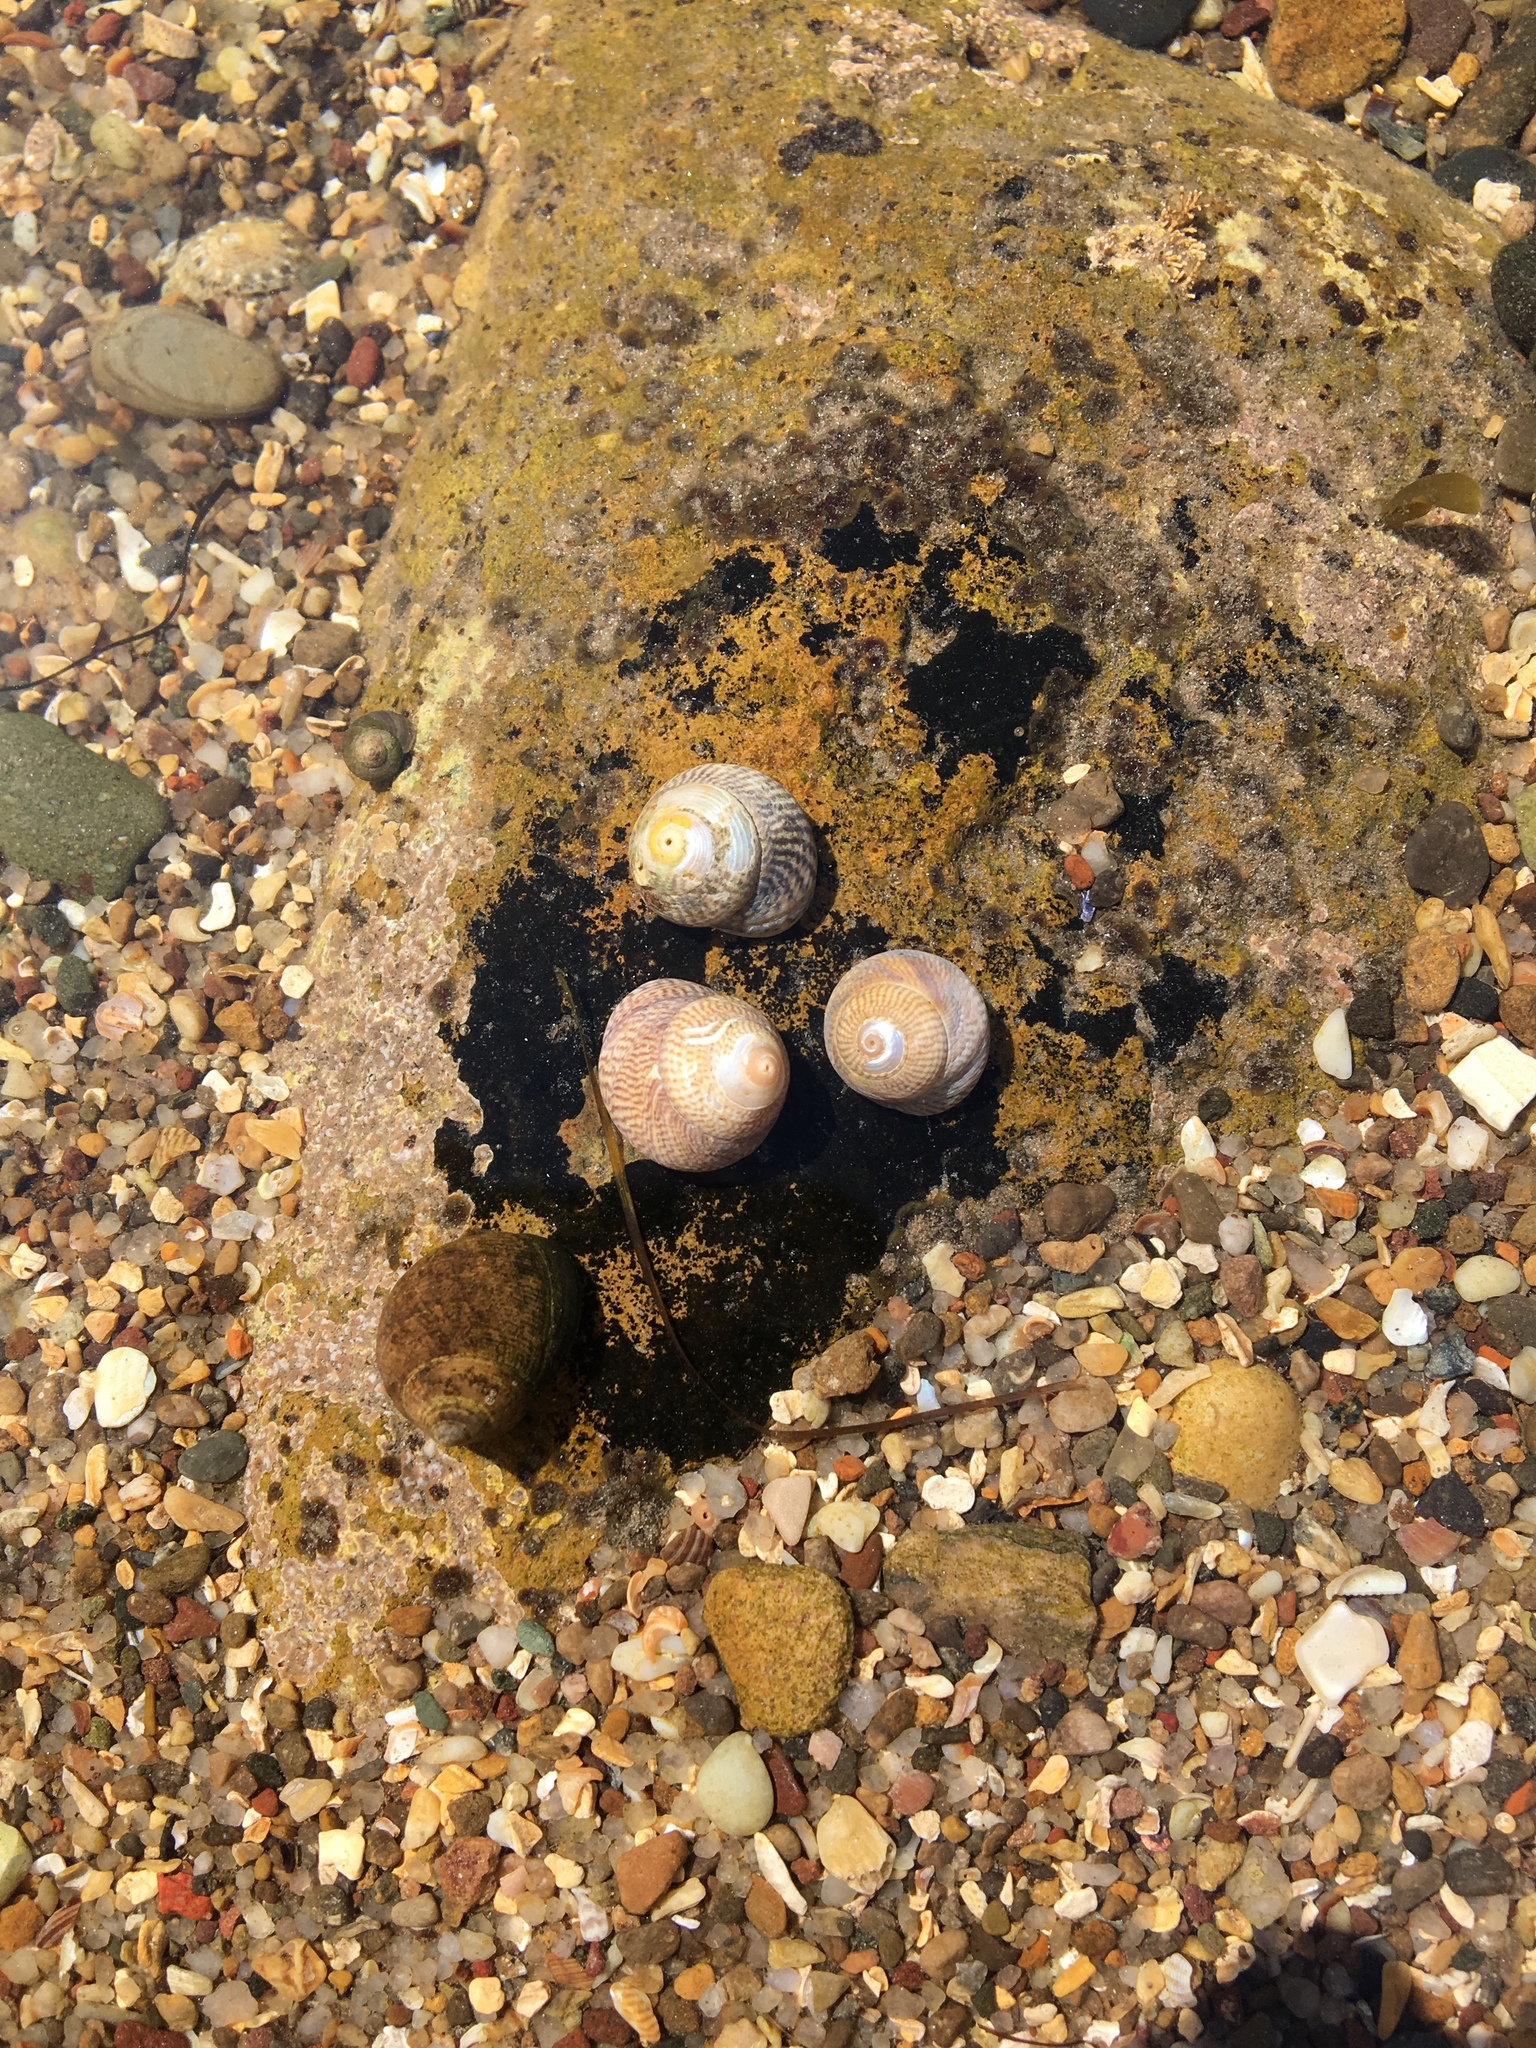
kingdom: Animalia
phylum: Mollusca
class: Gastropoda
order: Trochida
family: Trochidae
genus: Steromphala
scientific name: Steromphala cineraria
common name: Grey top shell
